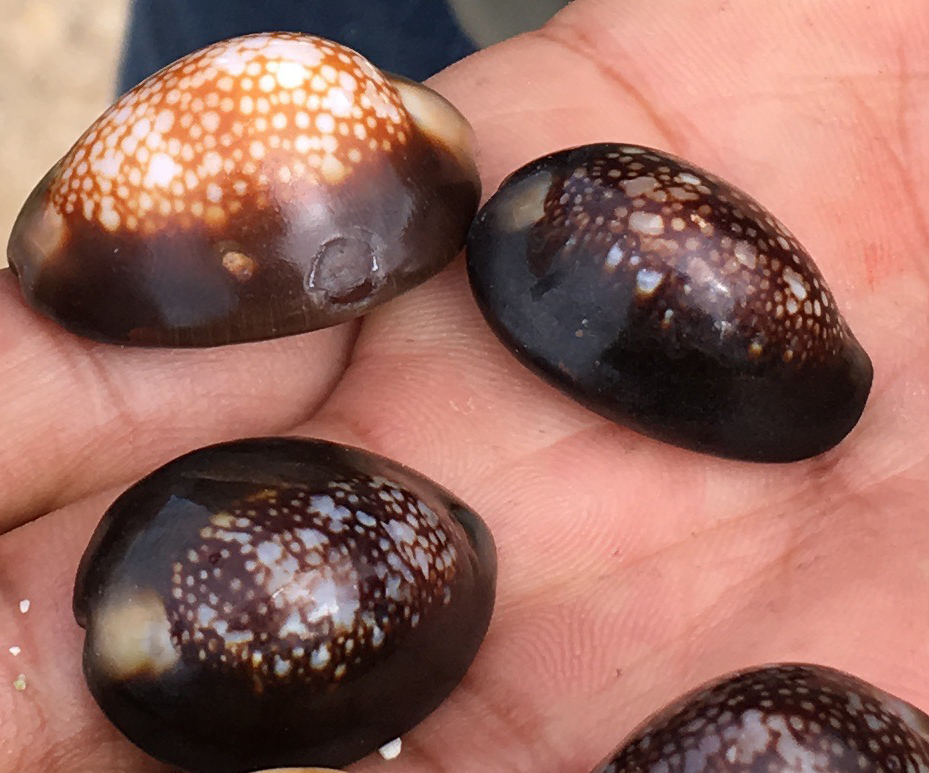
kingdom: Animalia
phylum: Mollusca
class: Gastropoda
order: Littorinimorpha
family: Cypraeidae
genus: Monetaria
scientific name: Monetaria caputserpentis
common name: Serpent's head cowrie
